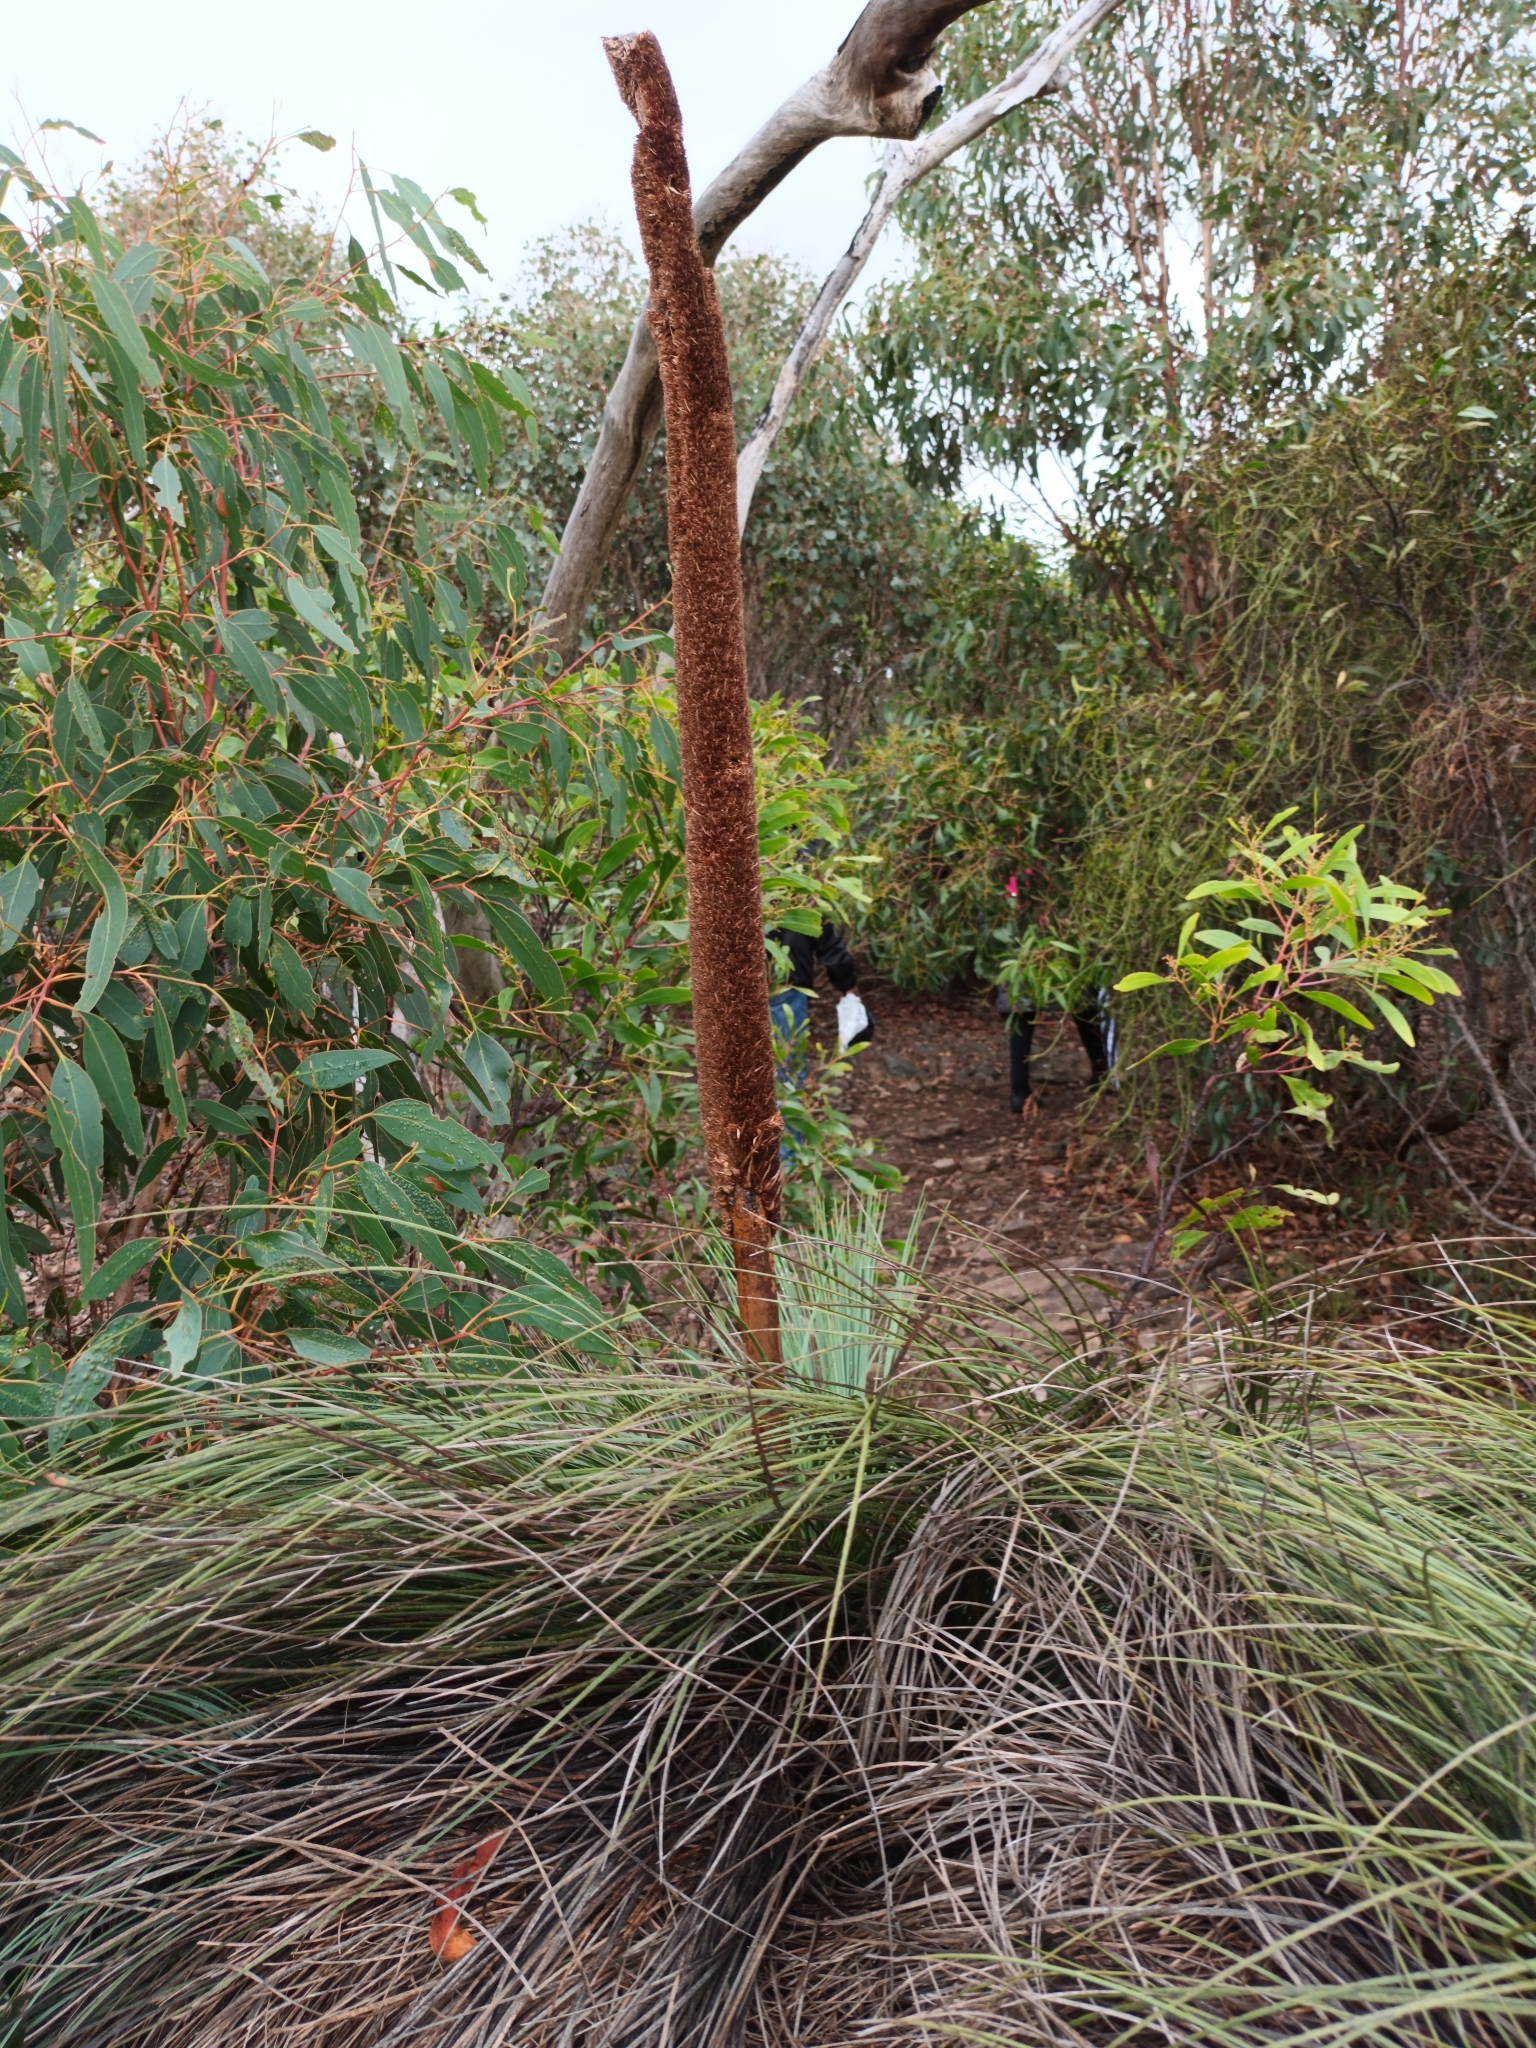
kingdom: Plantae
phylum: Tracheophyta
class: Liliopsida
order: Asparagales
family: Asphodelaceae
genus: Xanthorrhoea
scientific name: Xanthorrhoea australis
